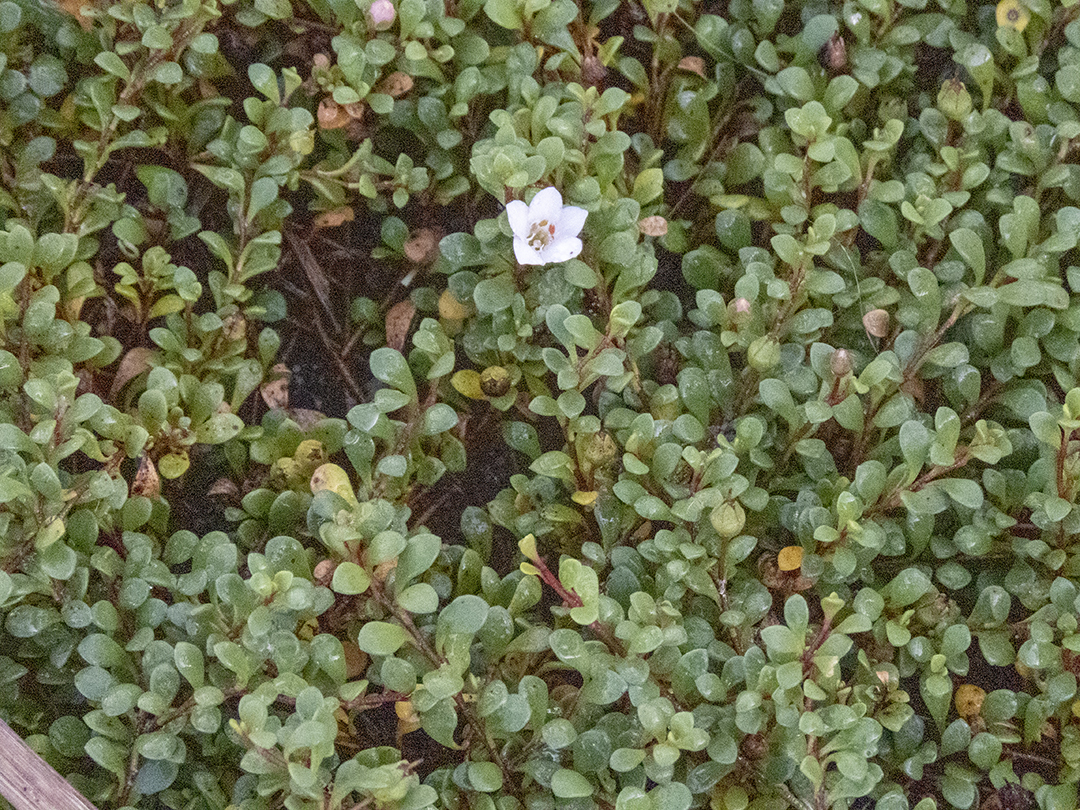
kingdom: Plantae
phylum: Tracheophyta
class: Magnoliopsida
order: Ericales
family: Primulaceae
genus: Samolus
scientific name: Samolus repens
